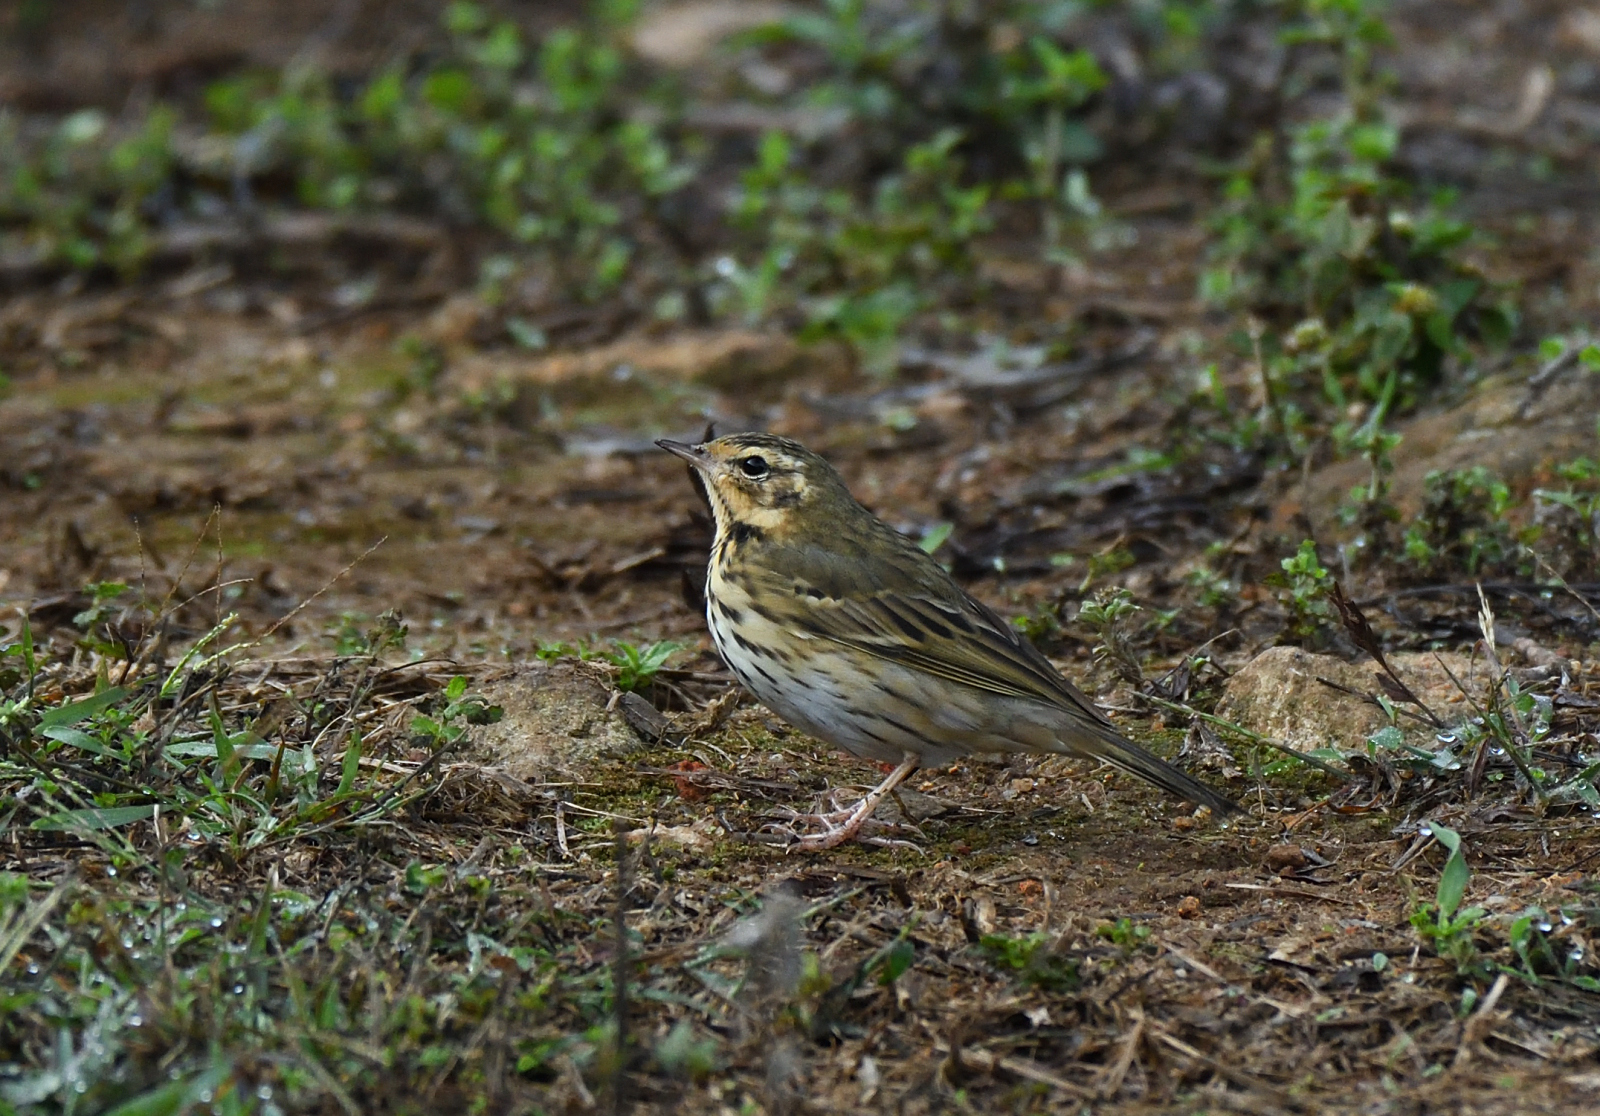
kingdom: Animalia
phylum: Chordata
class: Aves
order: Passeriformes
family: Motacillidae
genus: Anthus
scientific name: Anthus hodgsoni
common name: Olive-backed pipit
